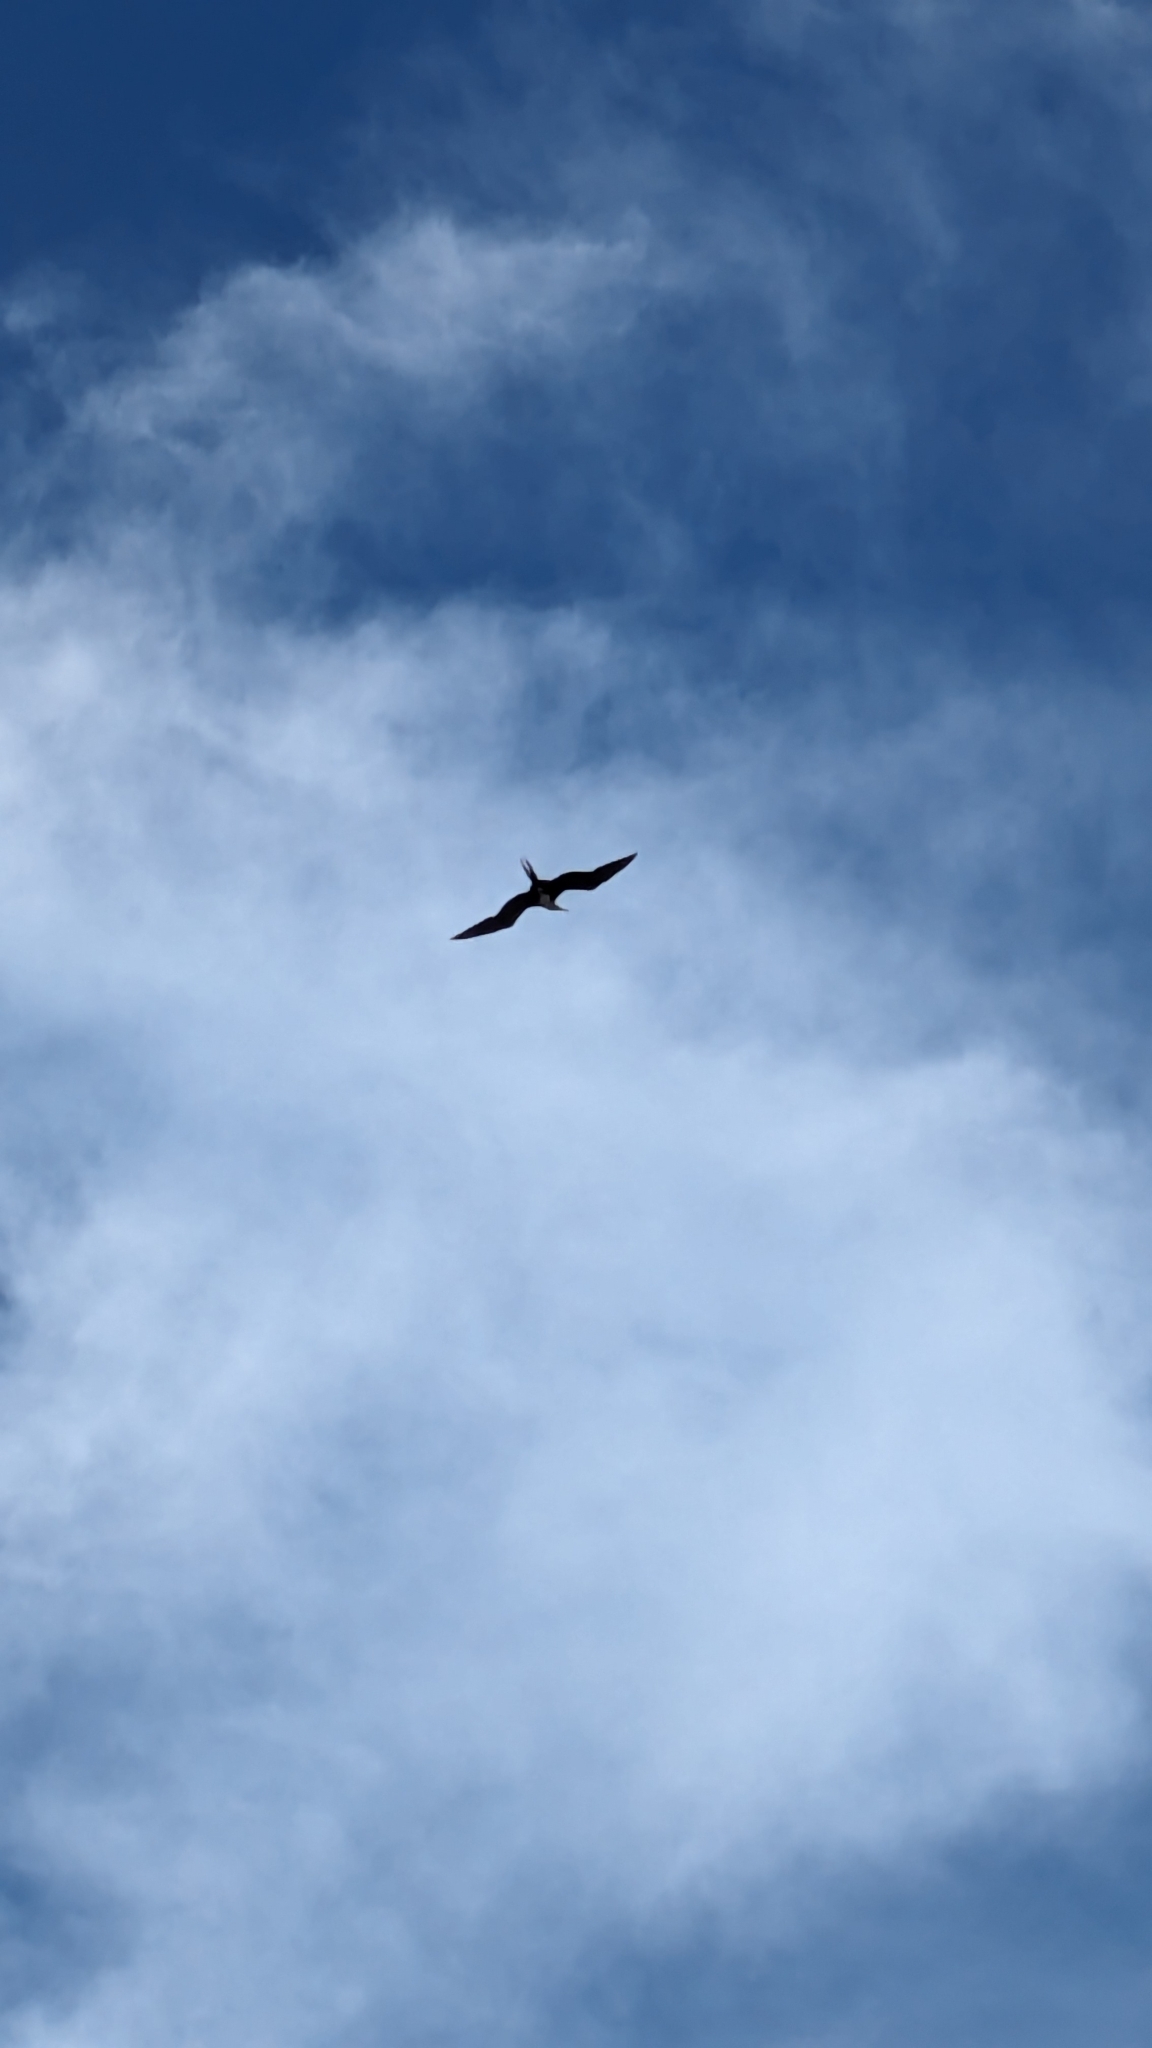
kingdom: Animalia
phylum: Chordata
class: Aves
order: Suliformes
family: Fregatidae
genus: Fregata
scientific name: Fregata magnificens
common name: Magnificent frigatebird
